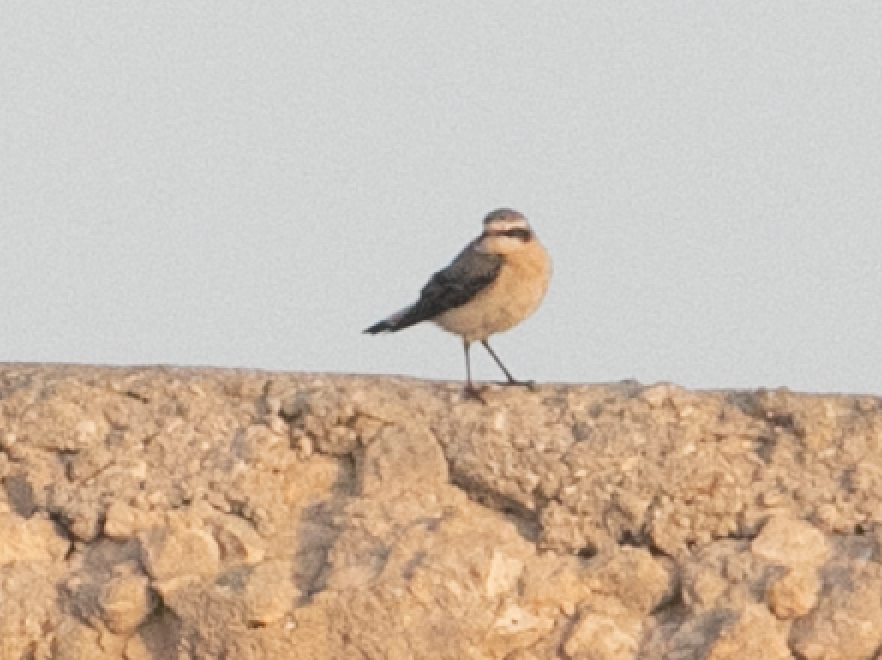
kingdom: Animalia
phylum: Chordata
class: Aves
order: Passeriformes
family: Muscicapidae
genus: Oenanthe
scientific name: Oenanthe oenanthe
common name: Northern wheatear
